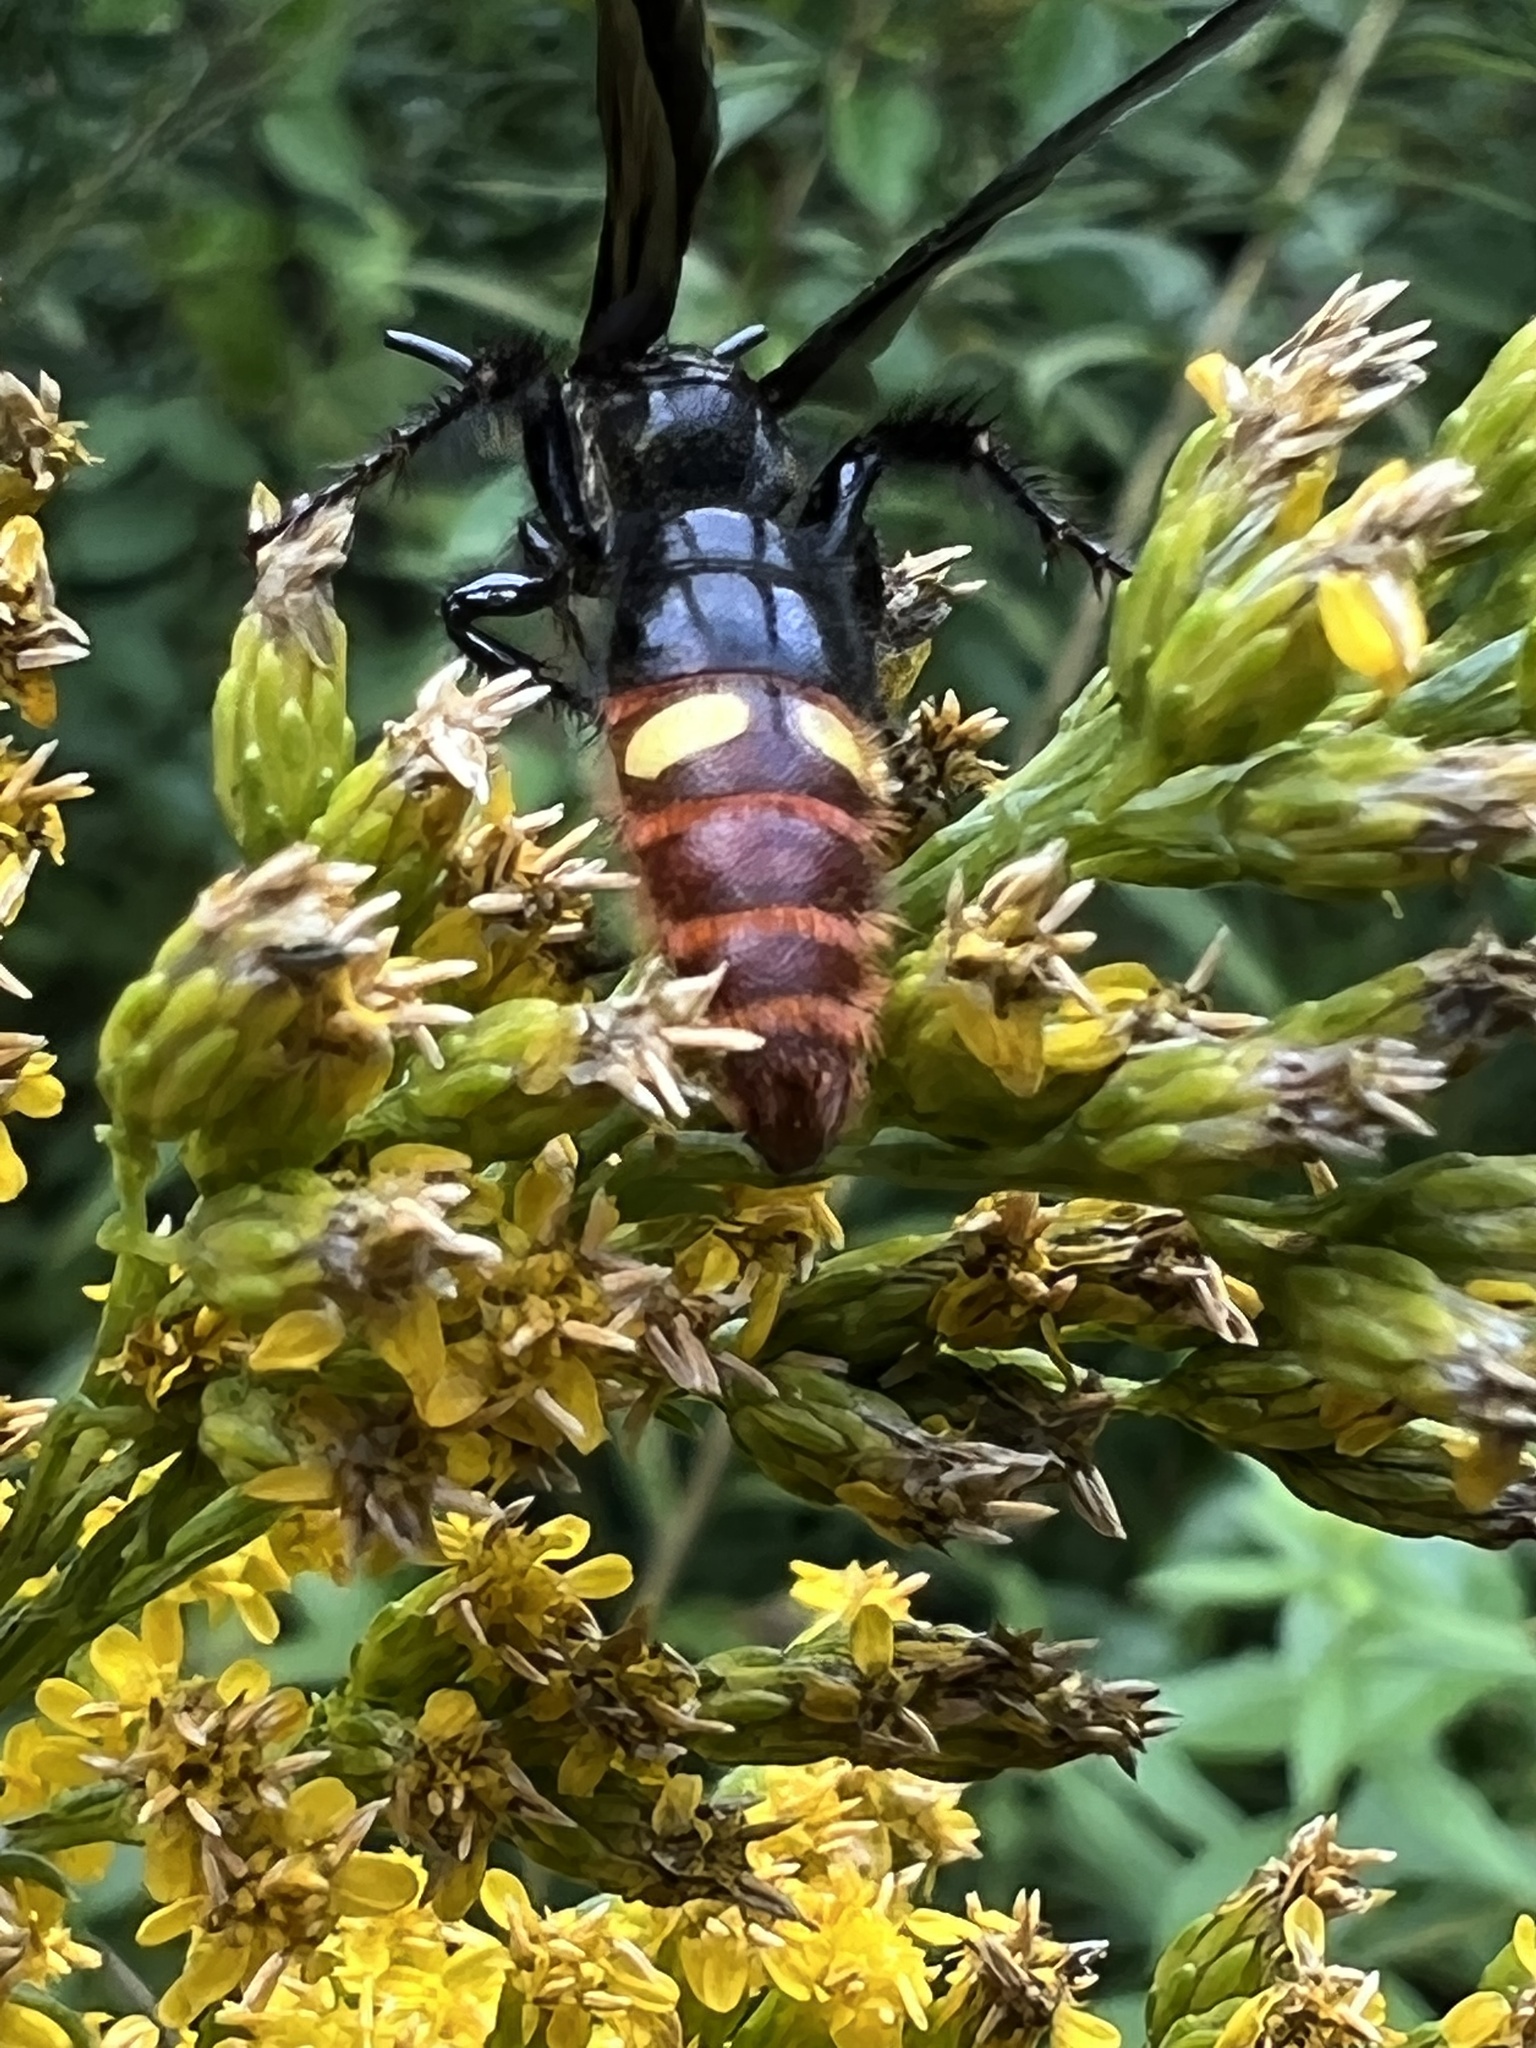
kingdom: Animalia
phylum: Arthropoda
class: Insecta
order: Hymenoptera
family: Scoliidae
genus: Scolia
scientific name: Scolia dubia
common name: Blue-winged scoliid wasp
